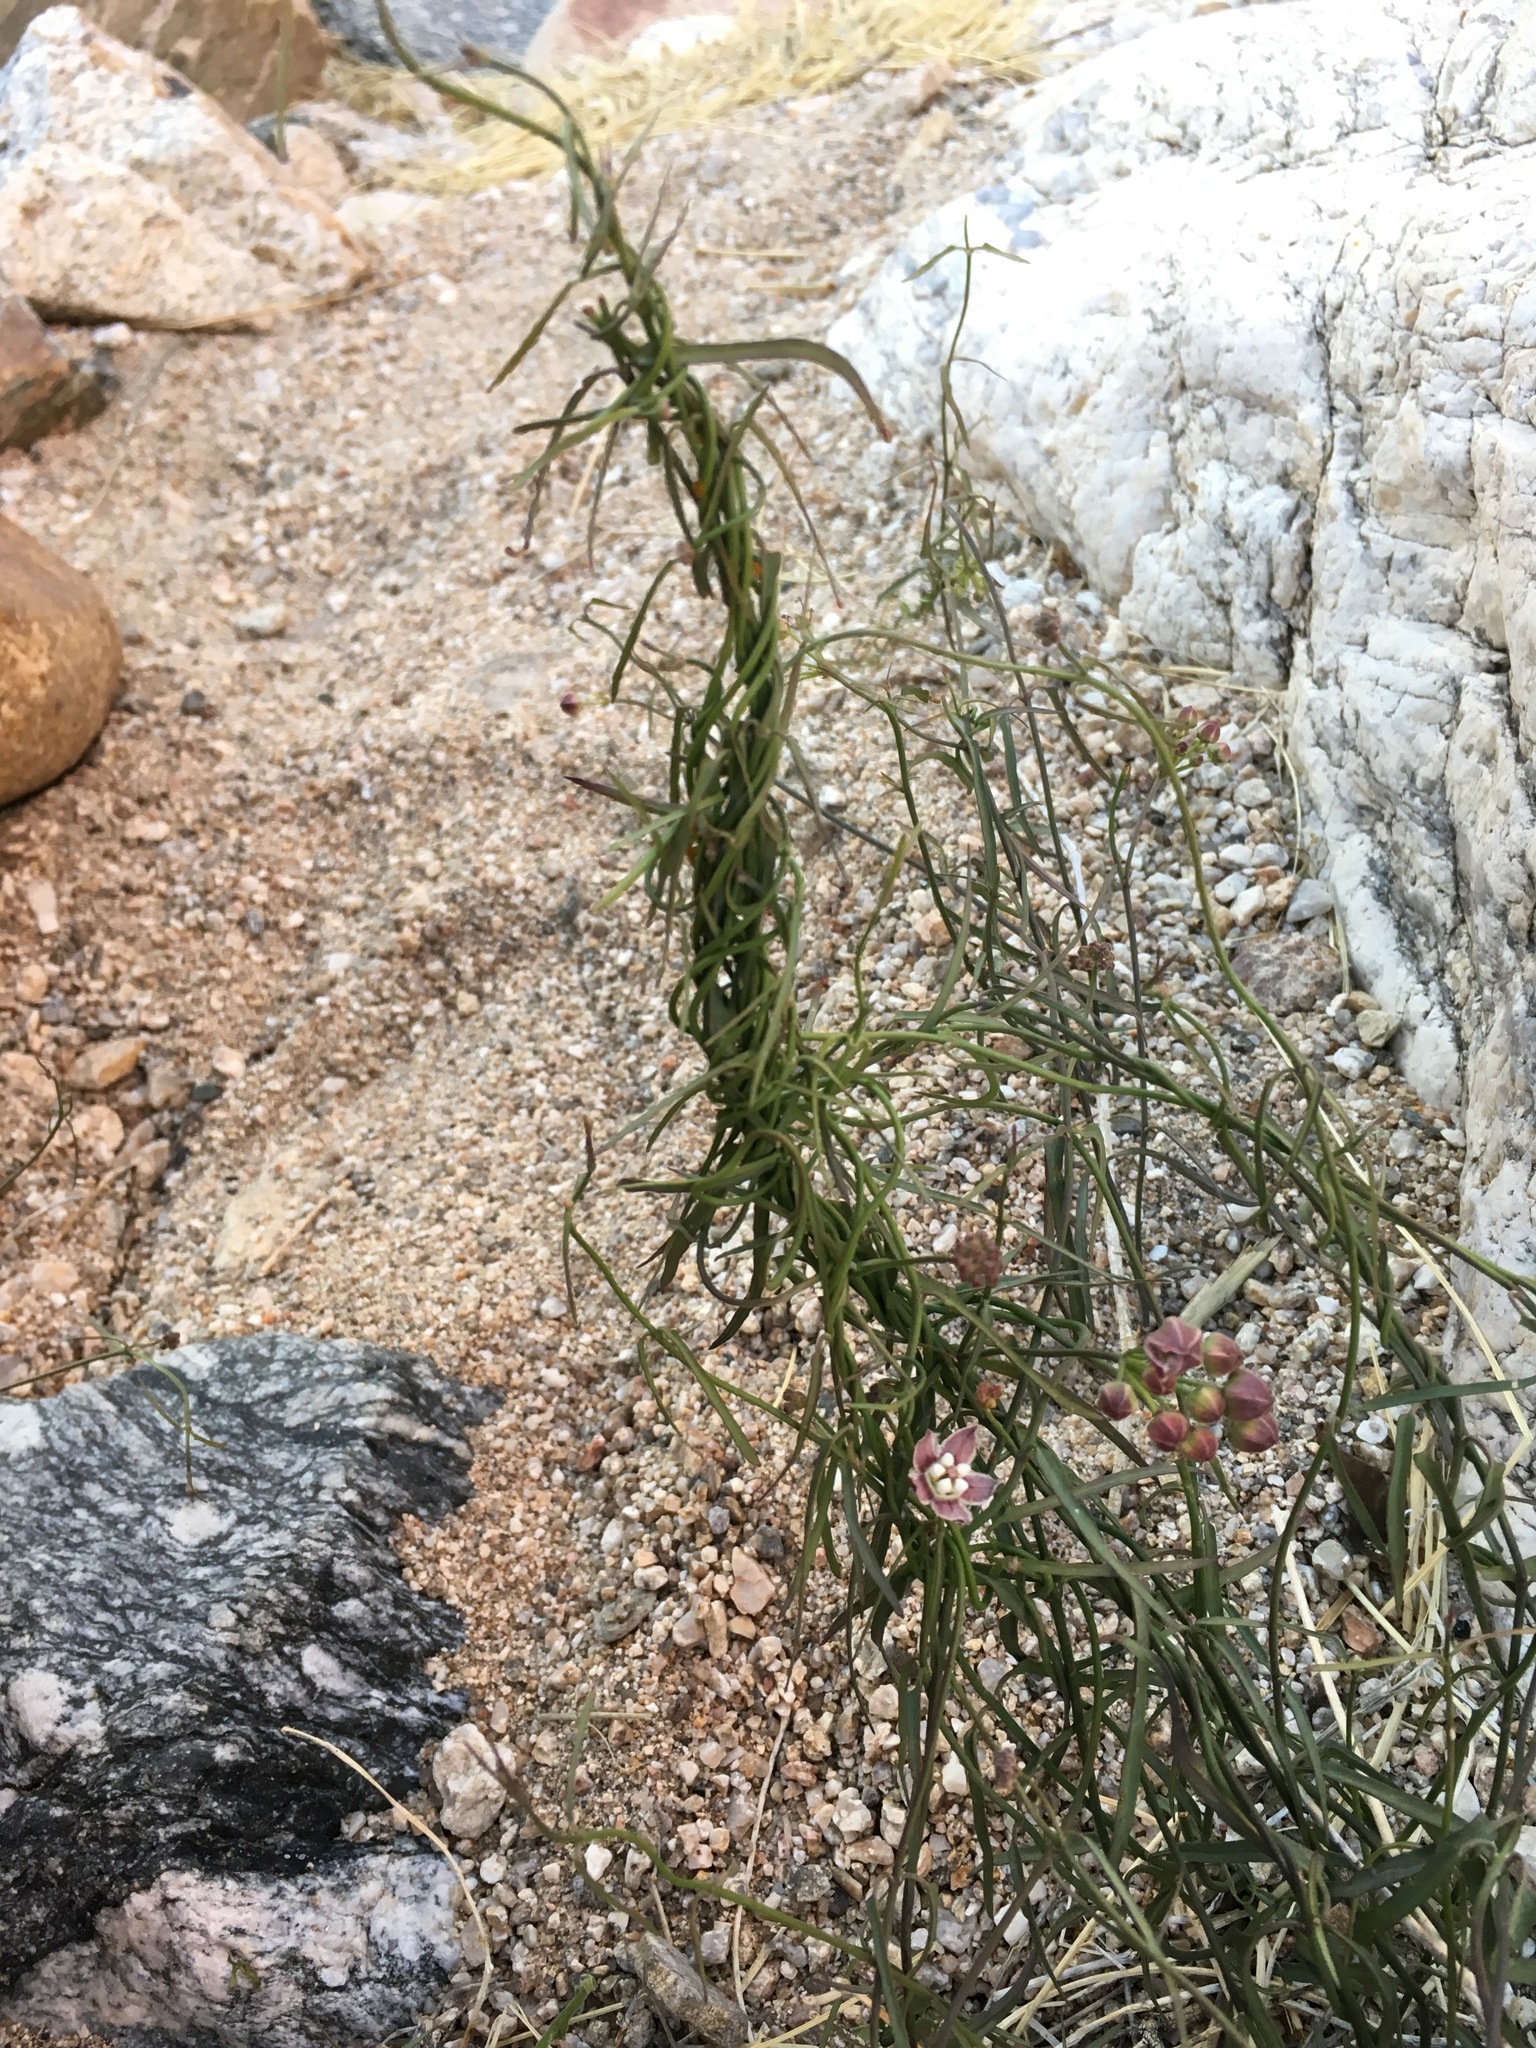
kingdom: Plantae
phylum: Tracheophyta
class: Magnoliopsida
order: Gentianales
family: Apocynaceae
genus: Funastrum
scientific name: Funastrum heterophyllum
